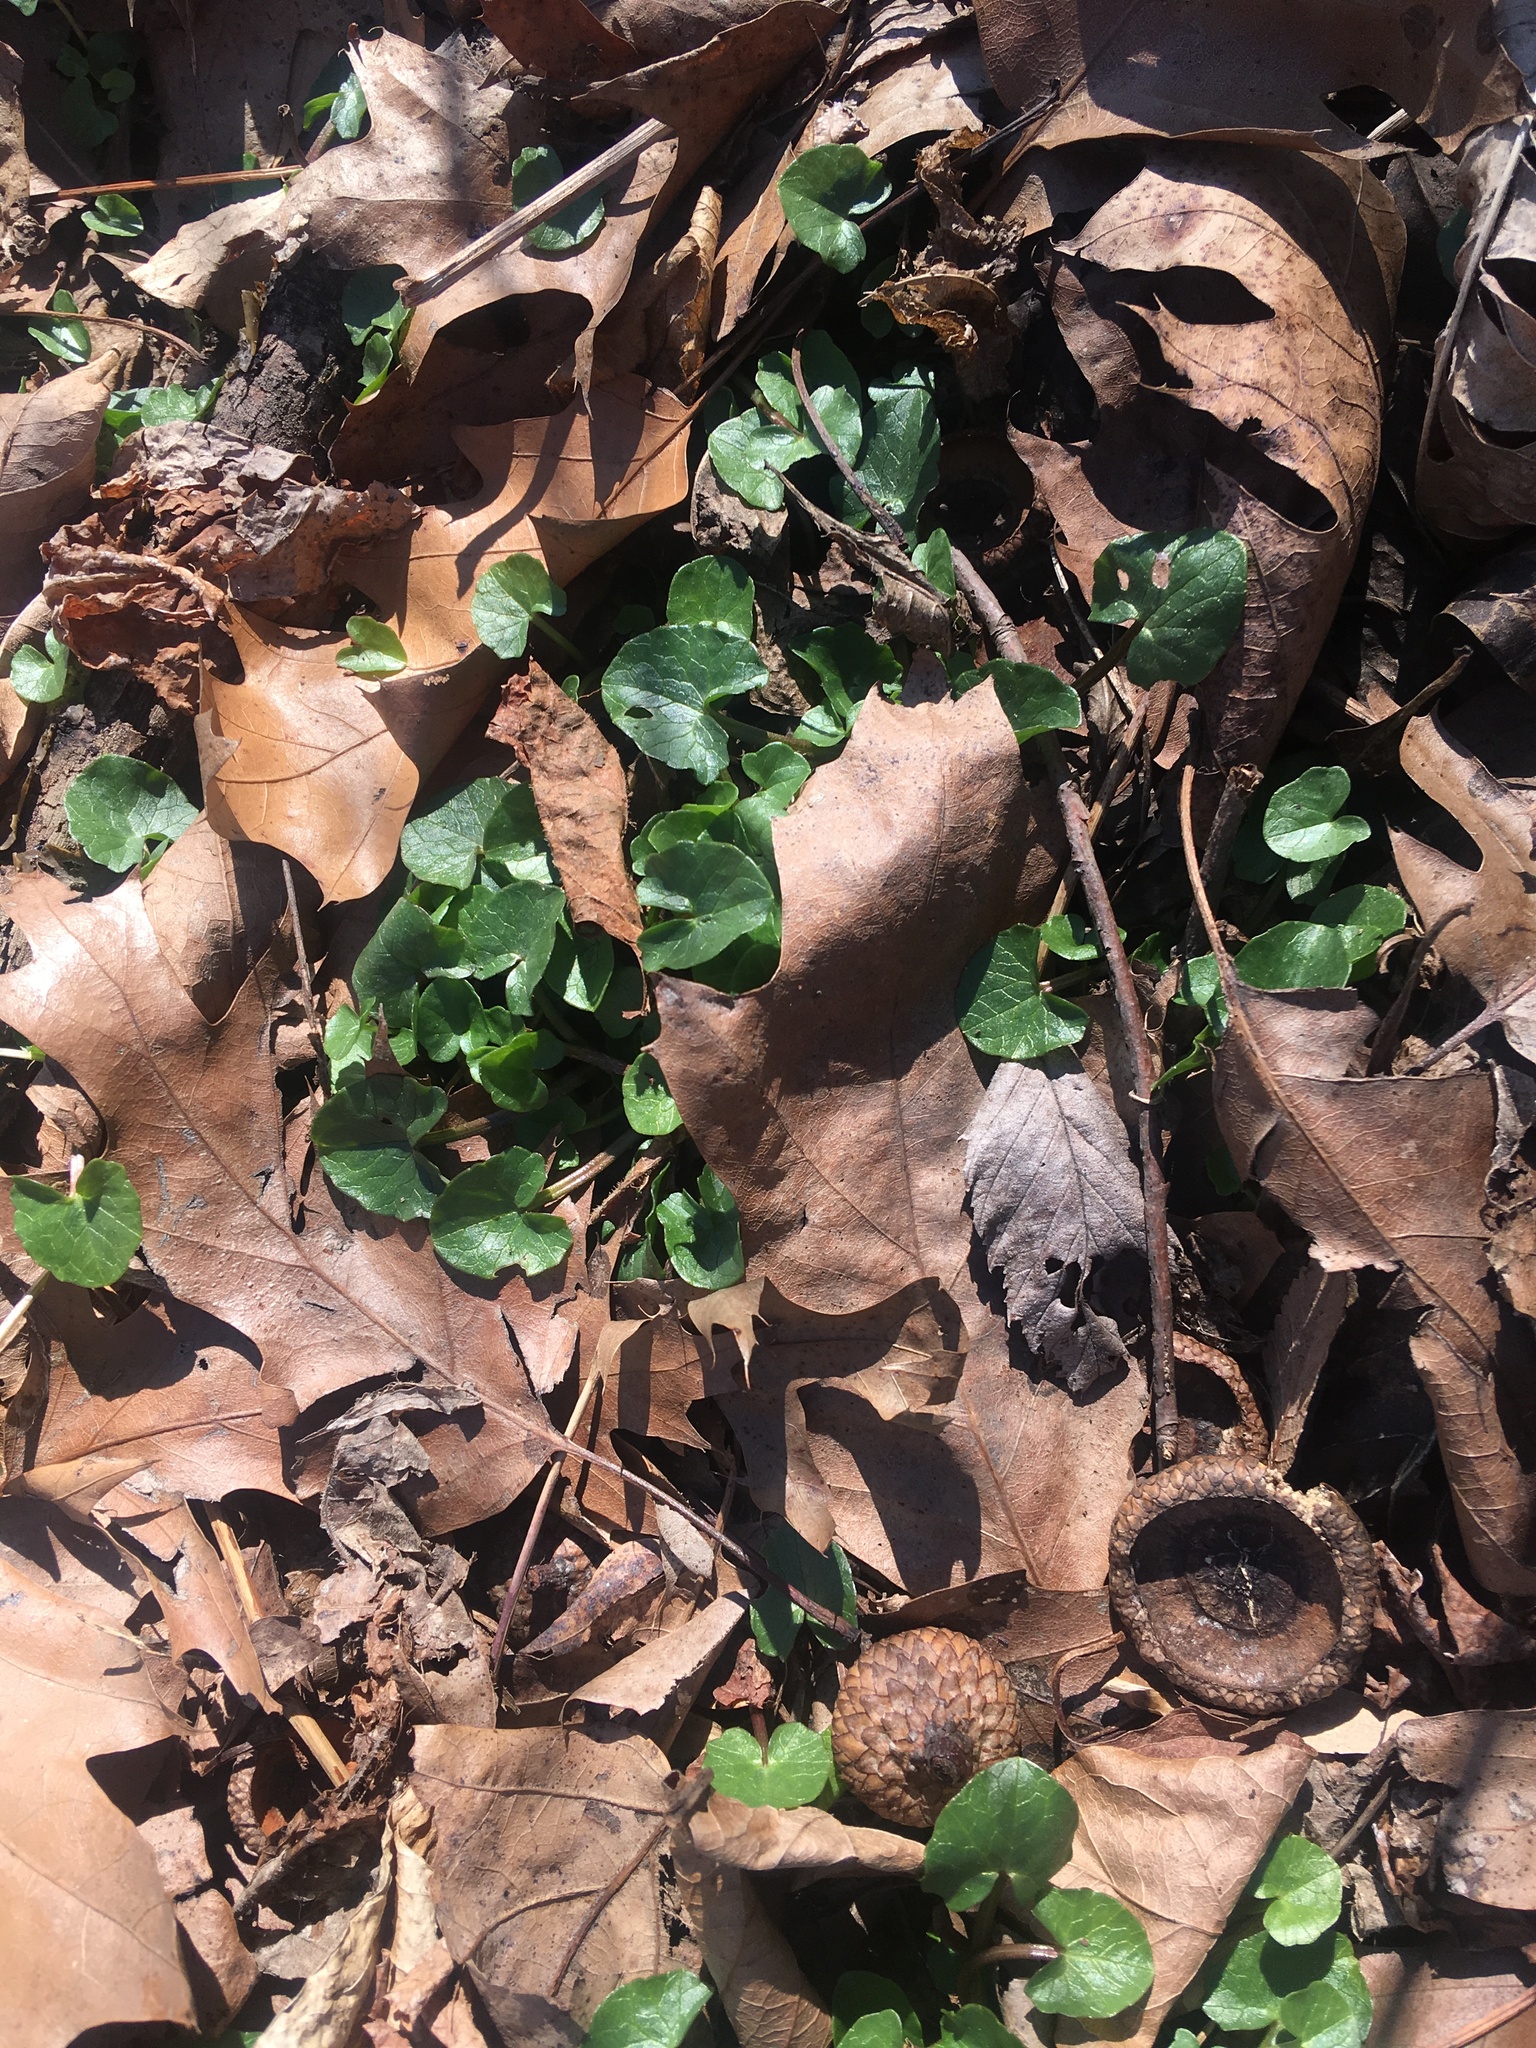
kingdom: Plantae
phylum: Tracheophyta
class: Magnoliopsida
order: Ranunculales
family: Ranunculaceae
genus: Ficaria
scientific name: Ficaria verna
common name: Lesser celandine
